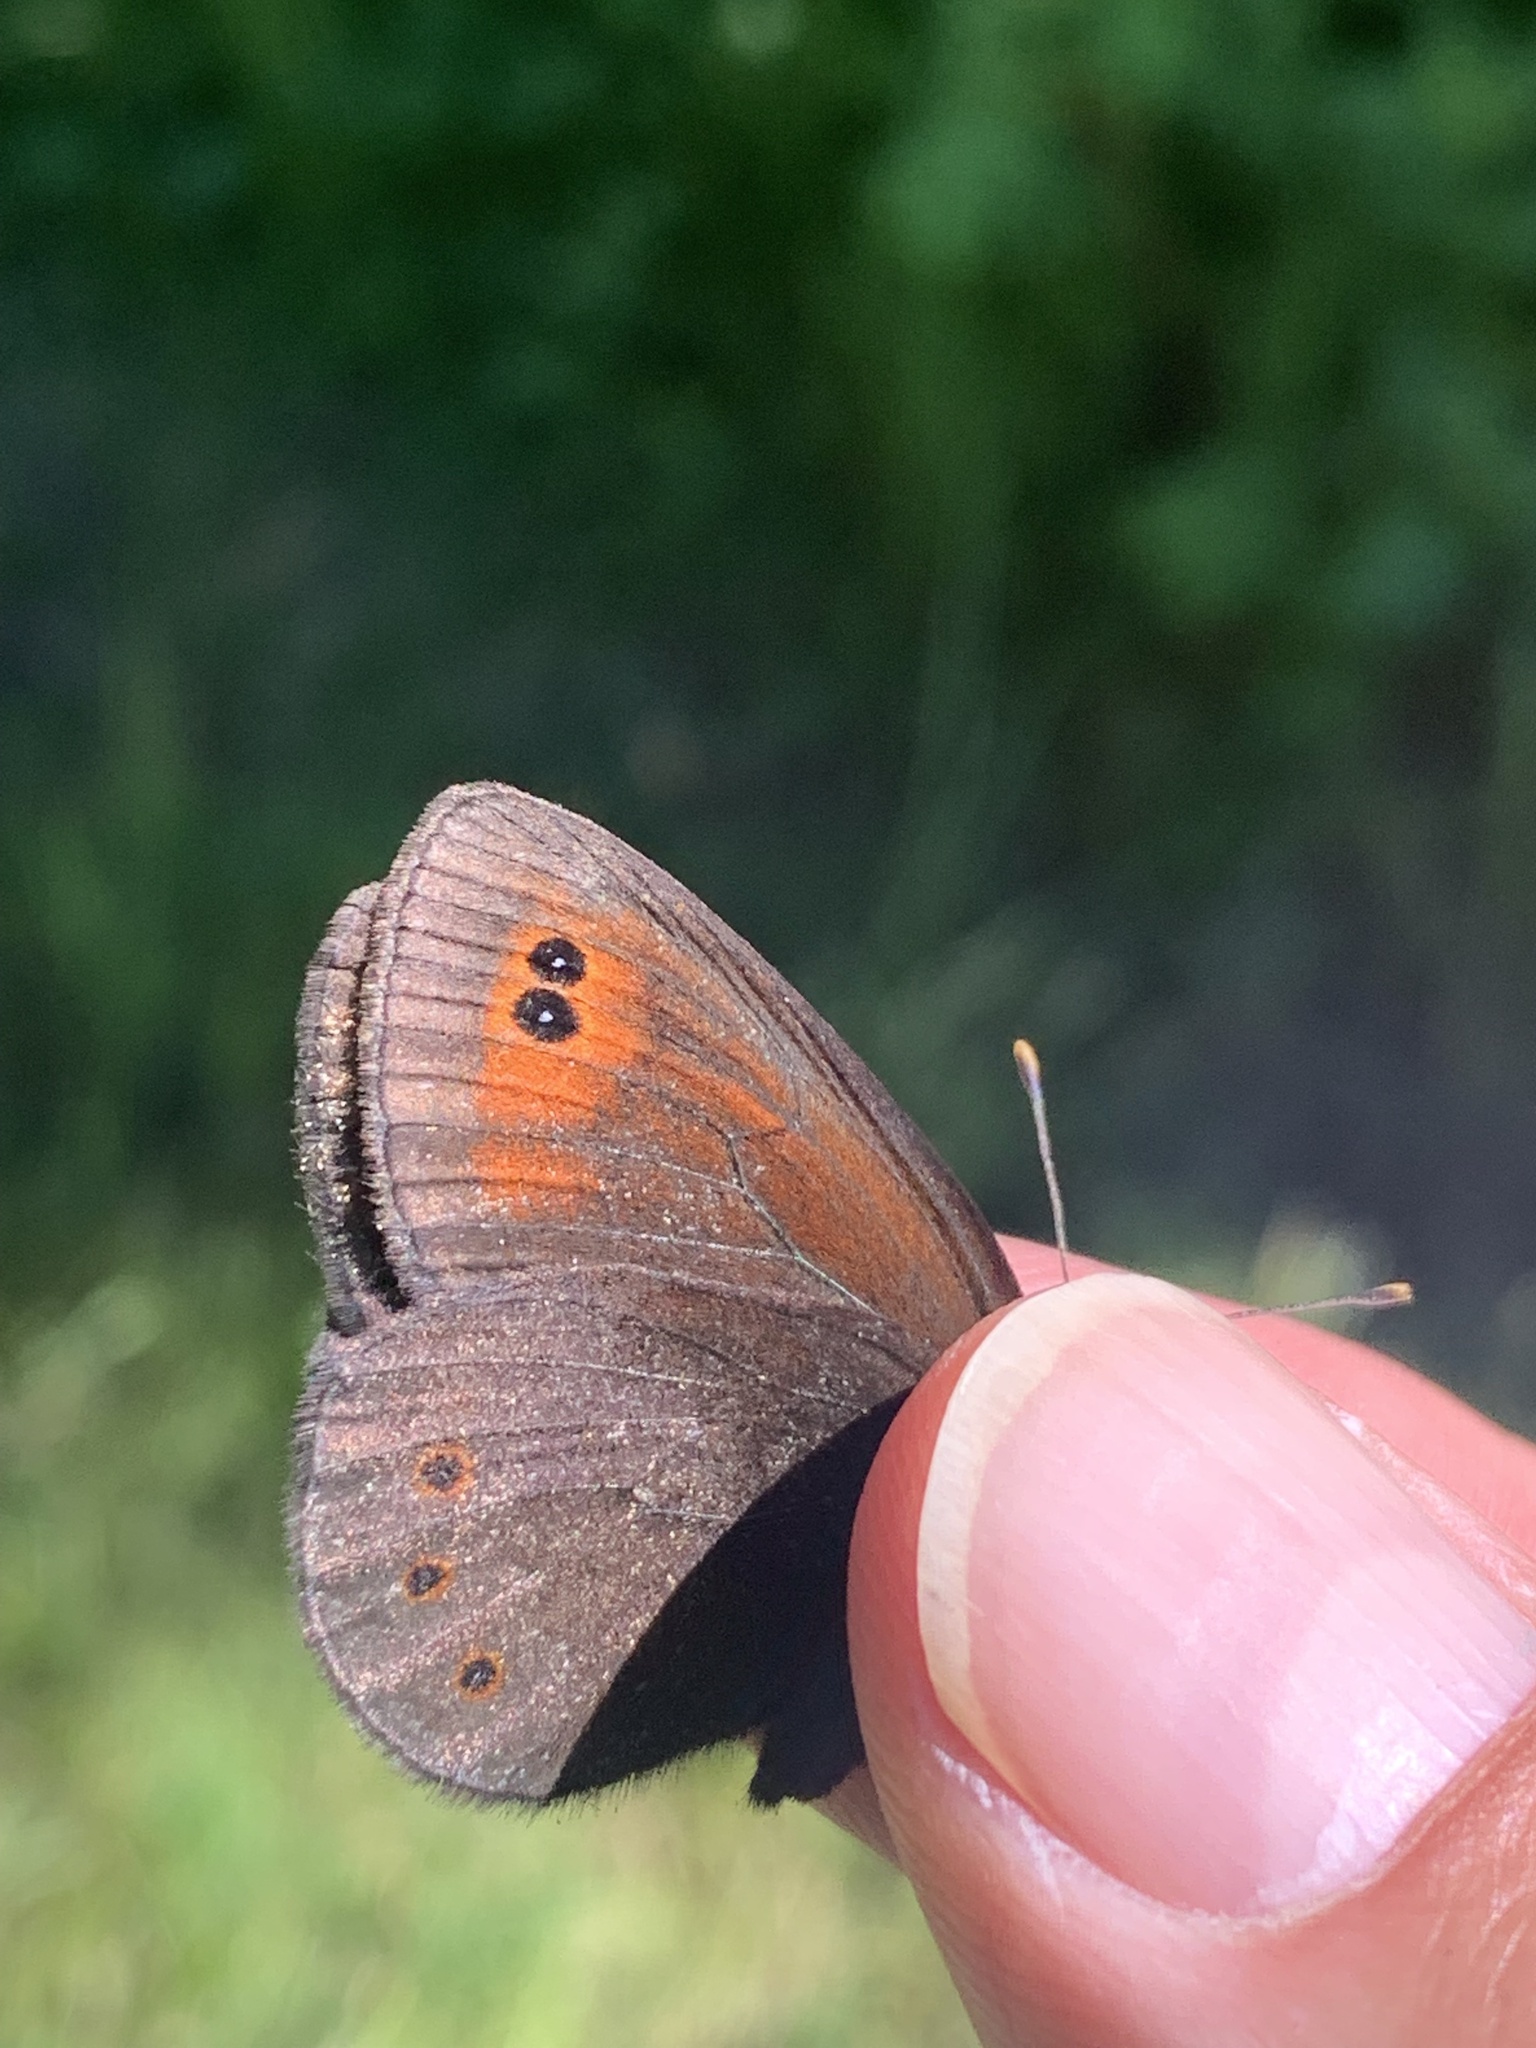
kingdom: Animalia
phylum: Arthropoda
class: Insecta
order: Lepidoptera
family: Nymphalidae
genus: Erebia
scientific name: Erebia epipsodea
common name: Common alpine
